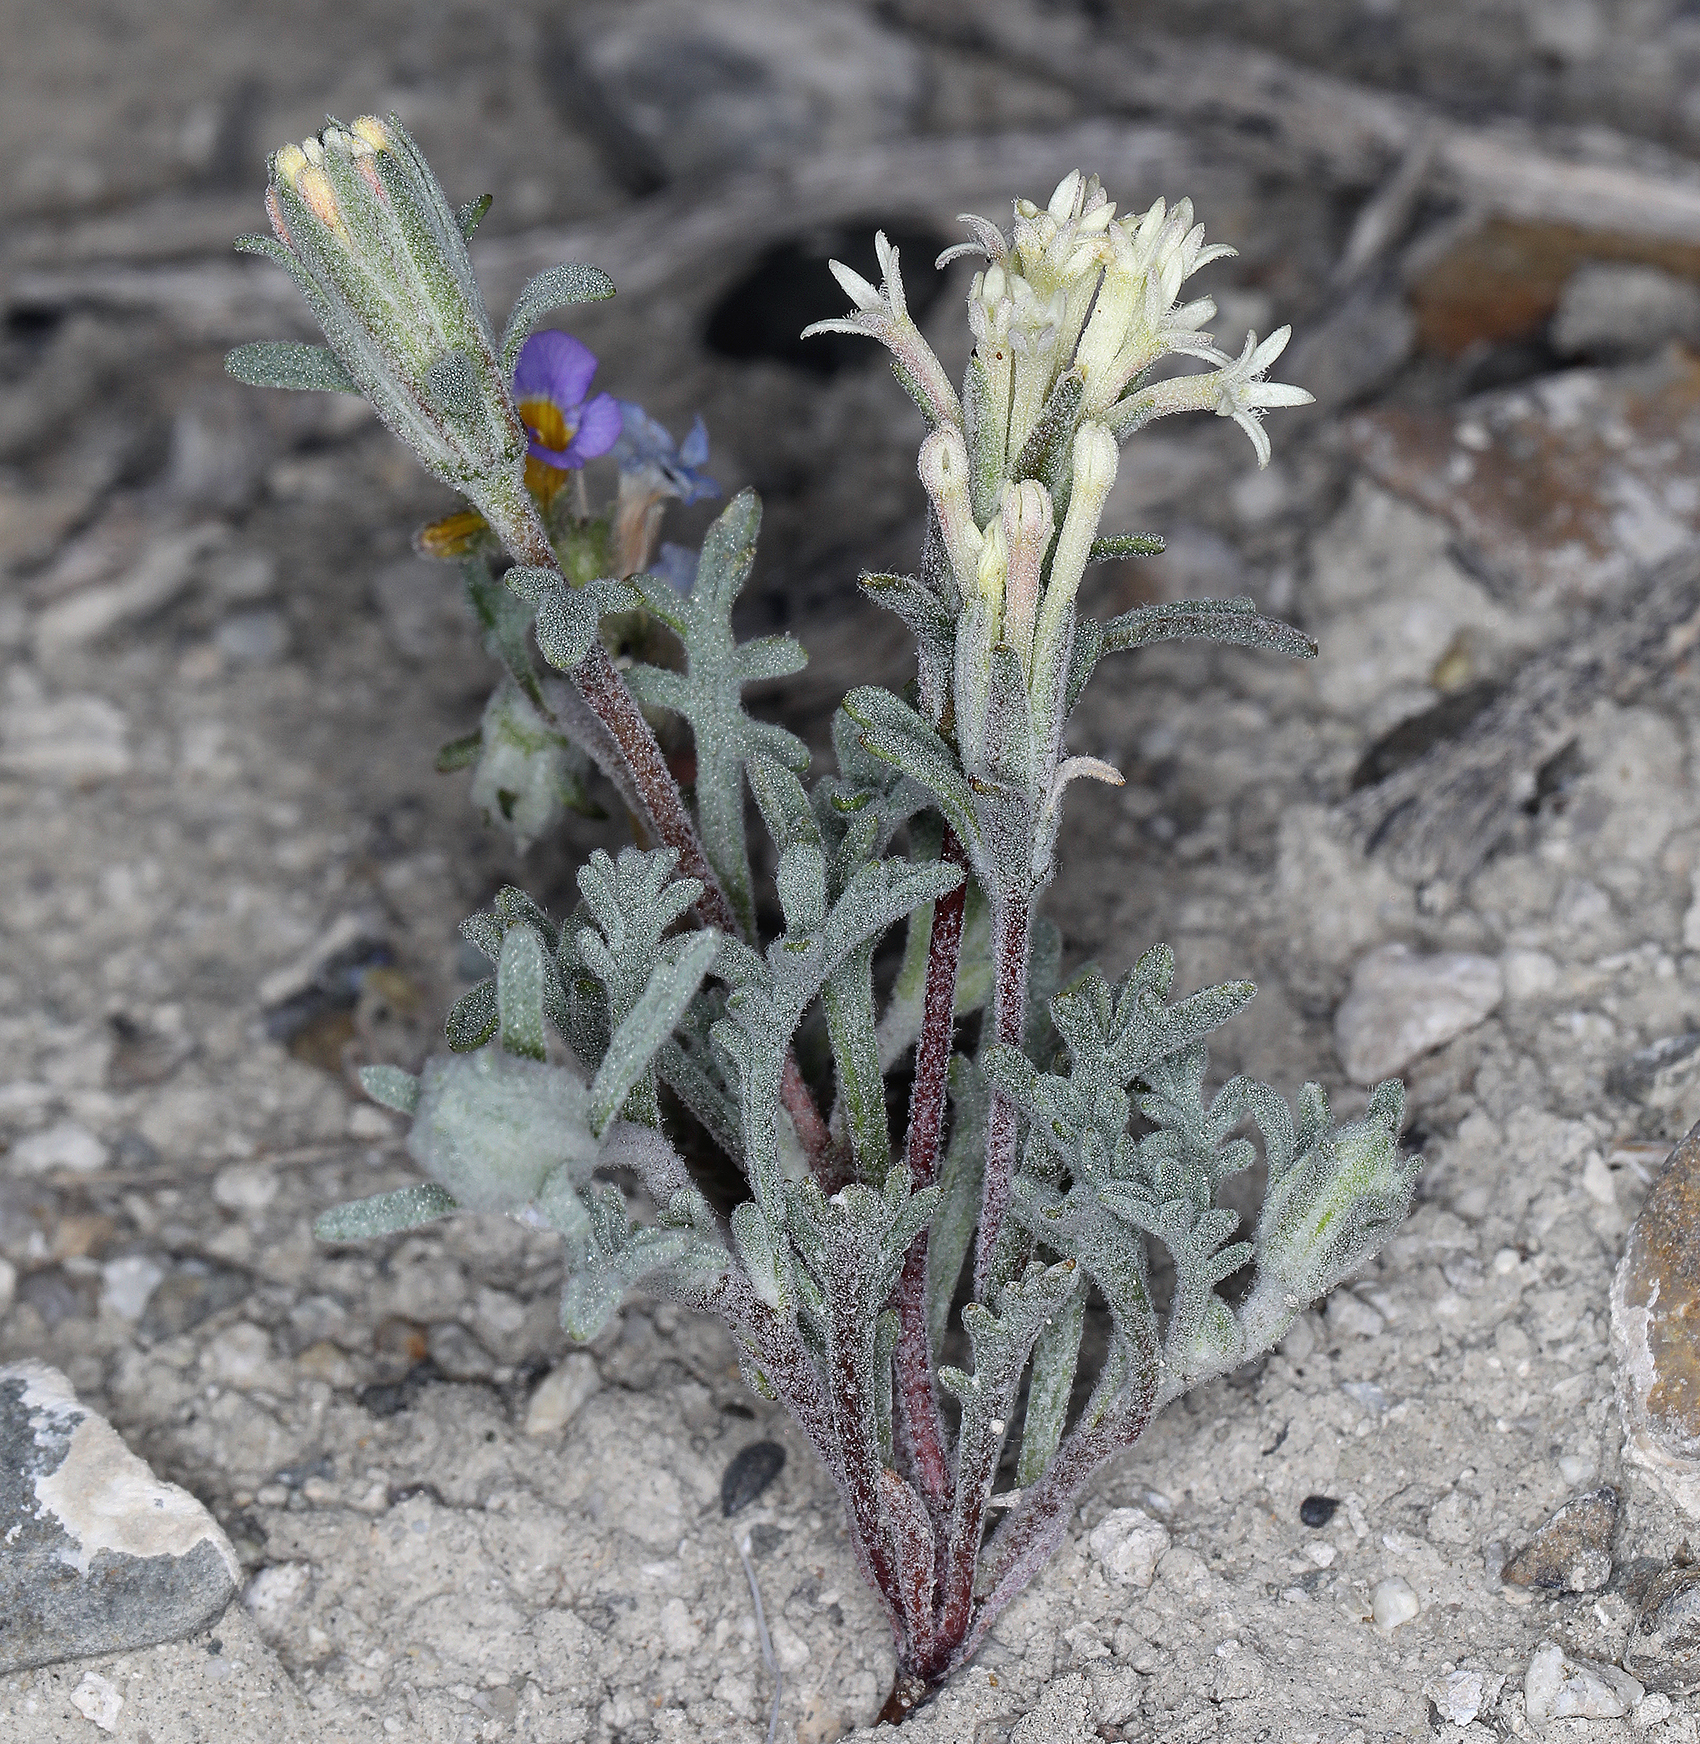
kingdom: Plantae
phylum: Tracheophyta
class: Magnoliopsida
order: Asterales
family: Asteraceae
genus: Chaenactis
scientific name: Chaenactis macrantha
